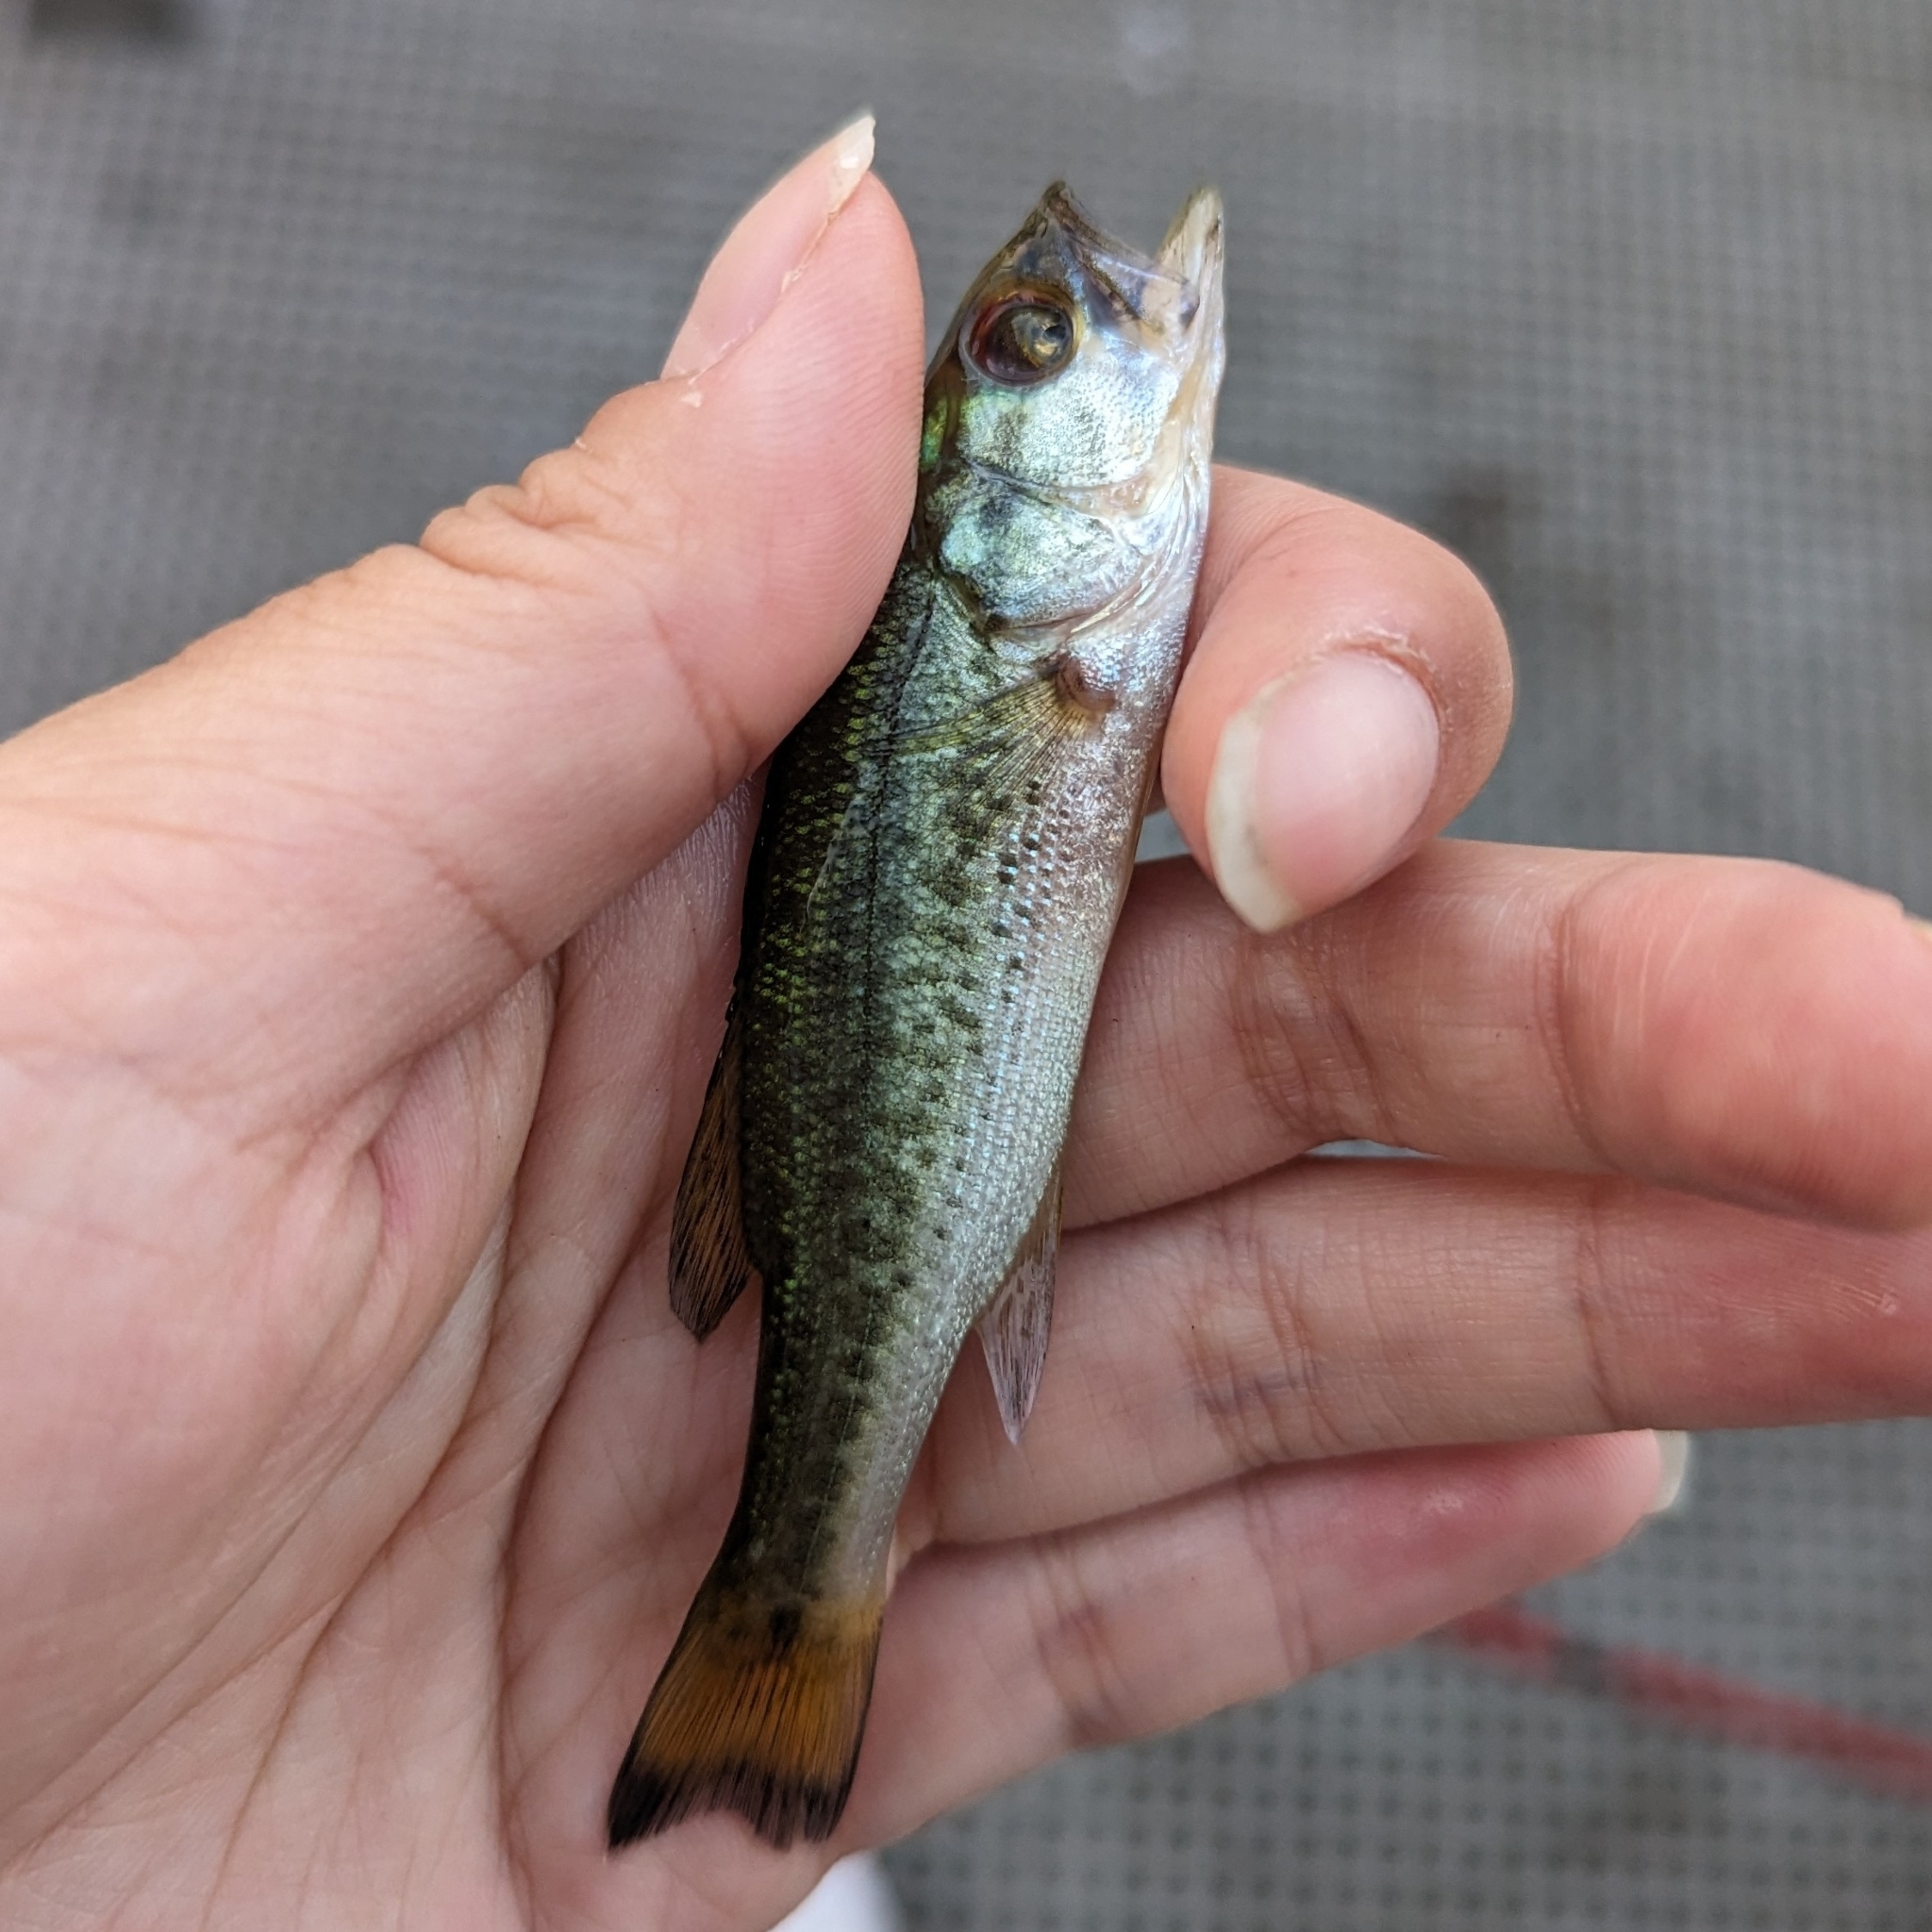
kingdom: Animalia
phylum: Chordata
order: Perciformes
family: Centrarchidae
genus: Micropterus
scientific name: Micropterus
